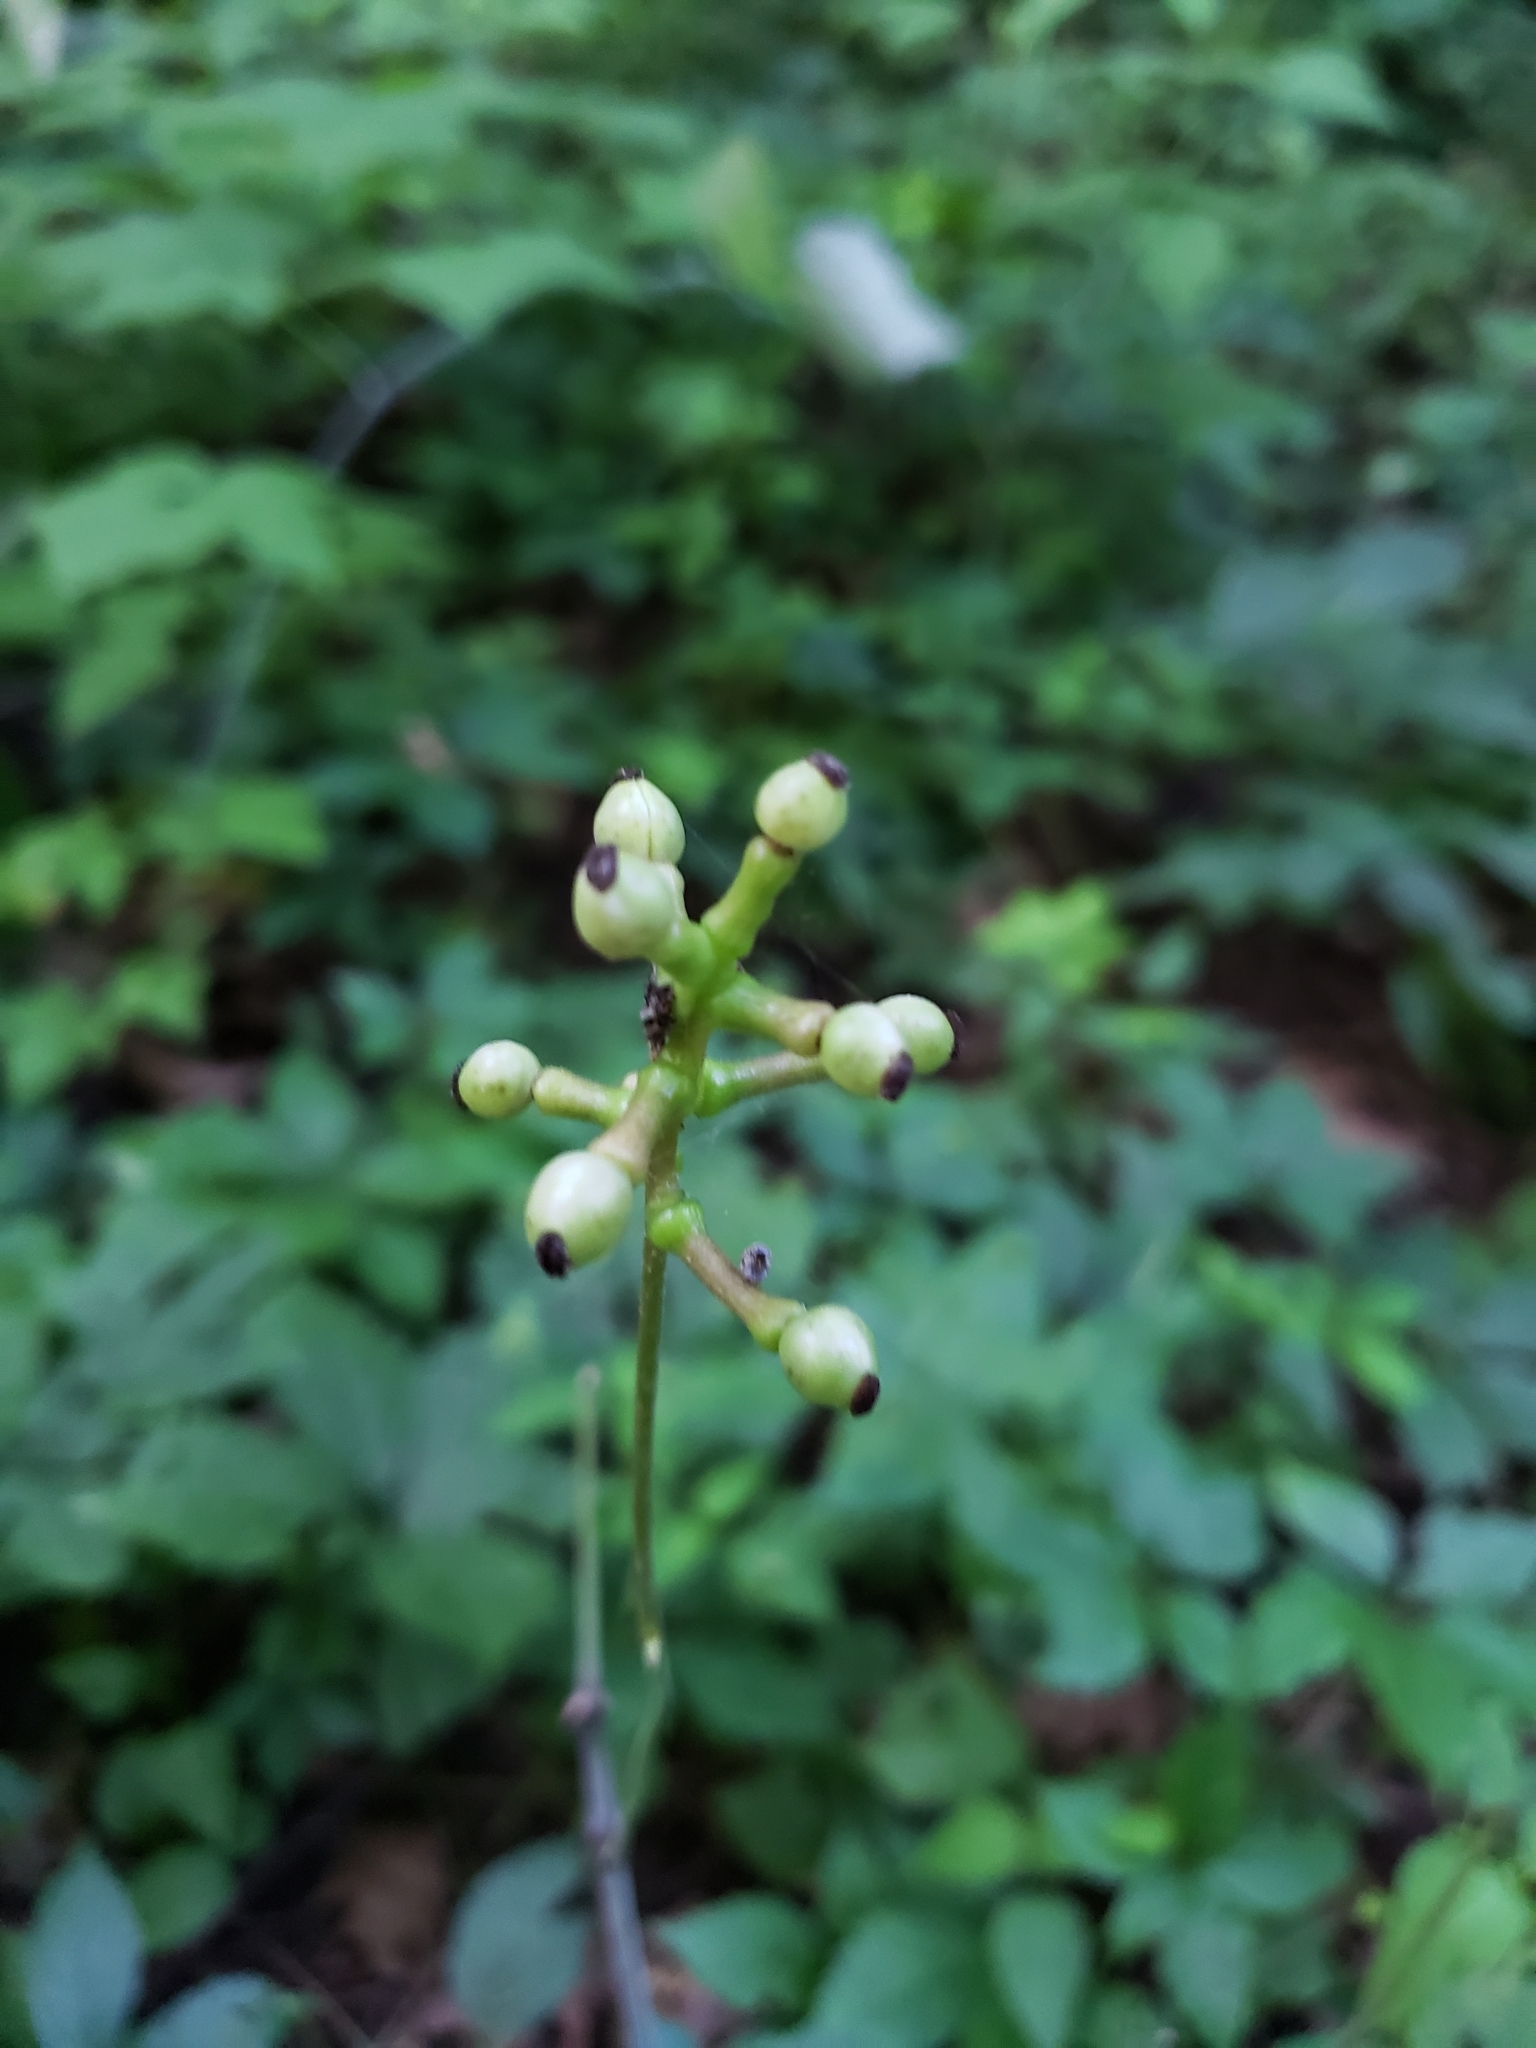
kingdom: Plantae
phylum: Tracheophyta
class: Magnoliopsida
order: Ranunculales
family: Ranunculaceae
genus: Actaea
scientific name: Actaea pachypoda
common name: Doll's-eyes
